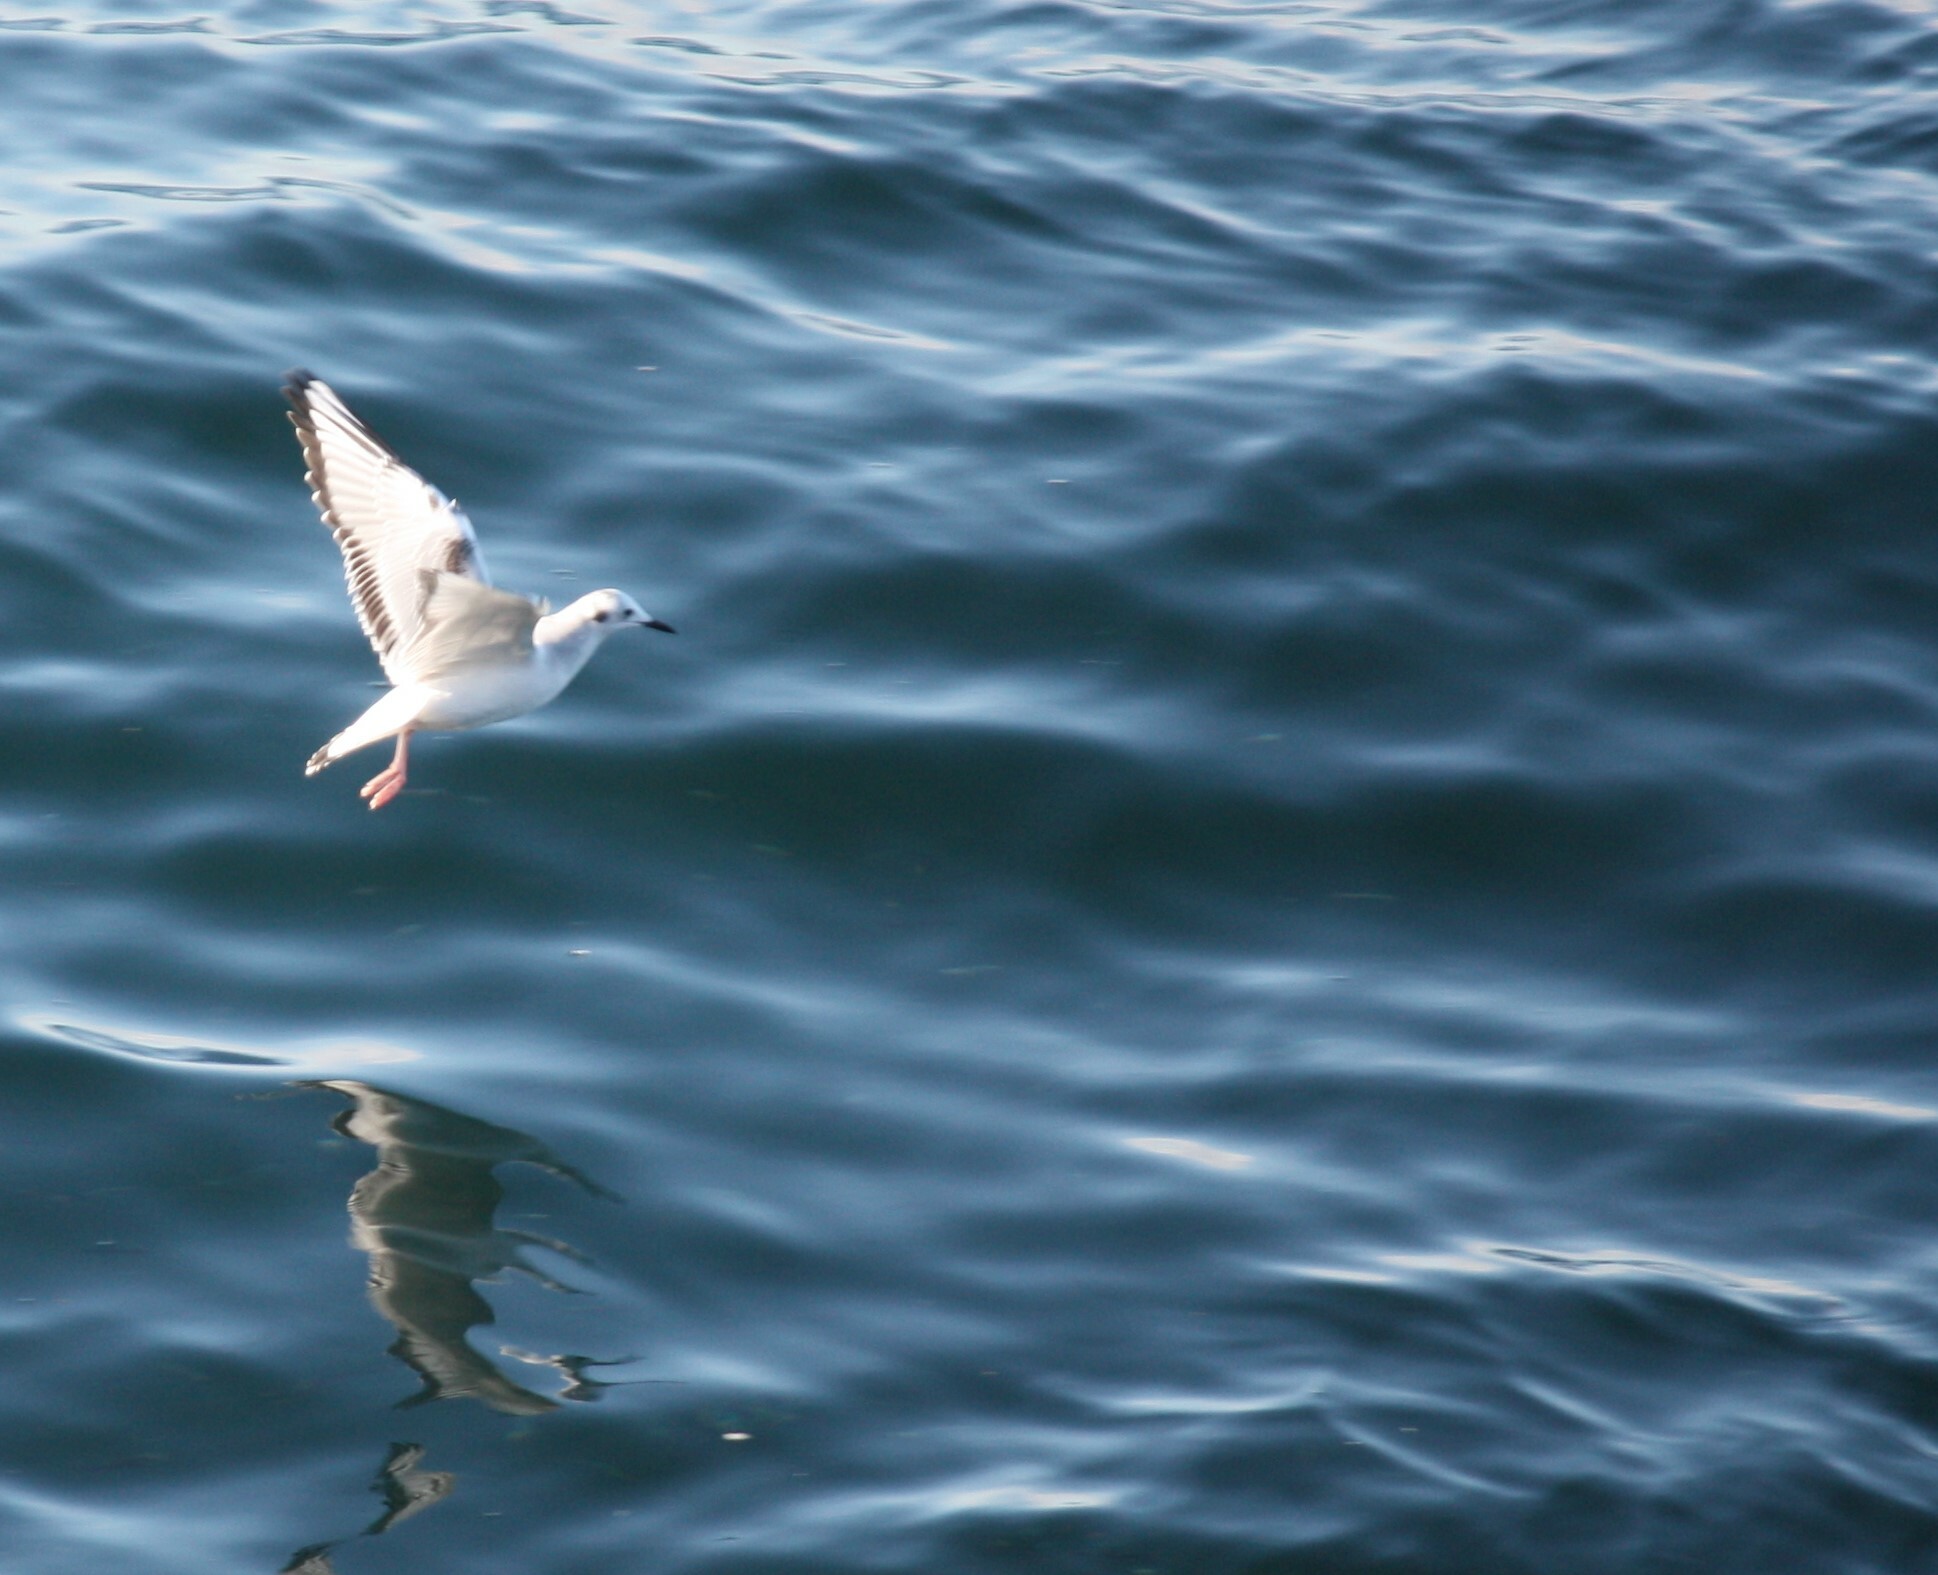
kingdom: Animalia
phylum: Chordata
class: Aves
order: Charadriiformes
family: Laridae
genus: Chroicocephalus
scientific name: Chroicocephalus philadelphia
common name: Bonaparte's gull
